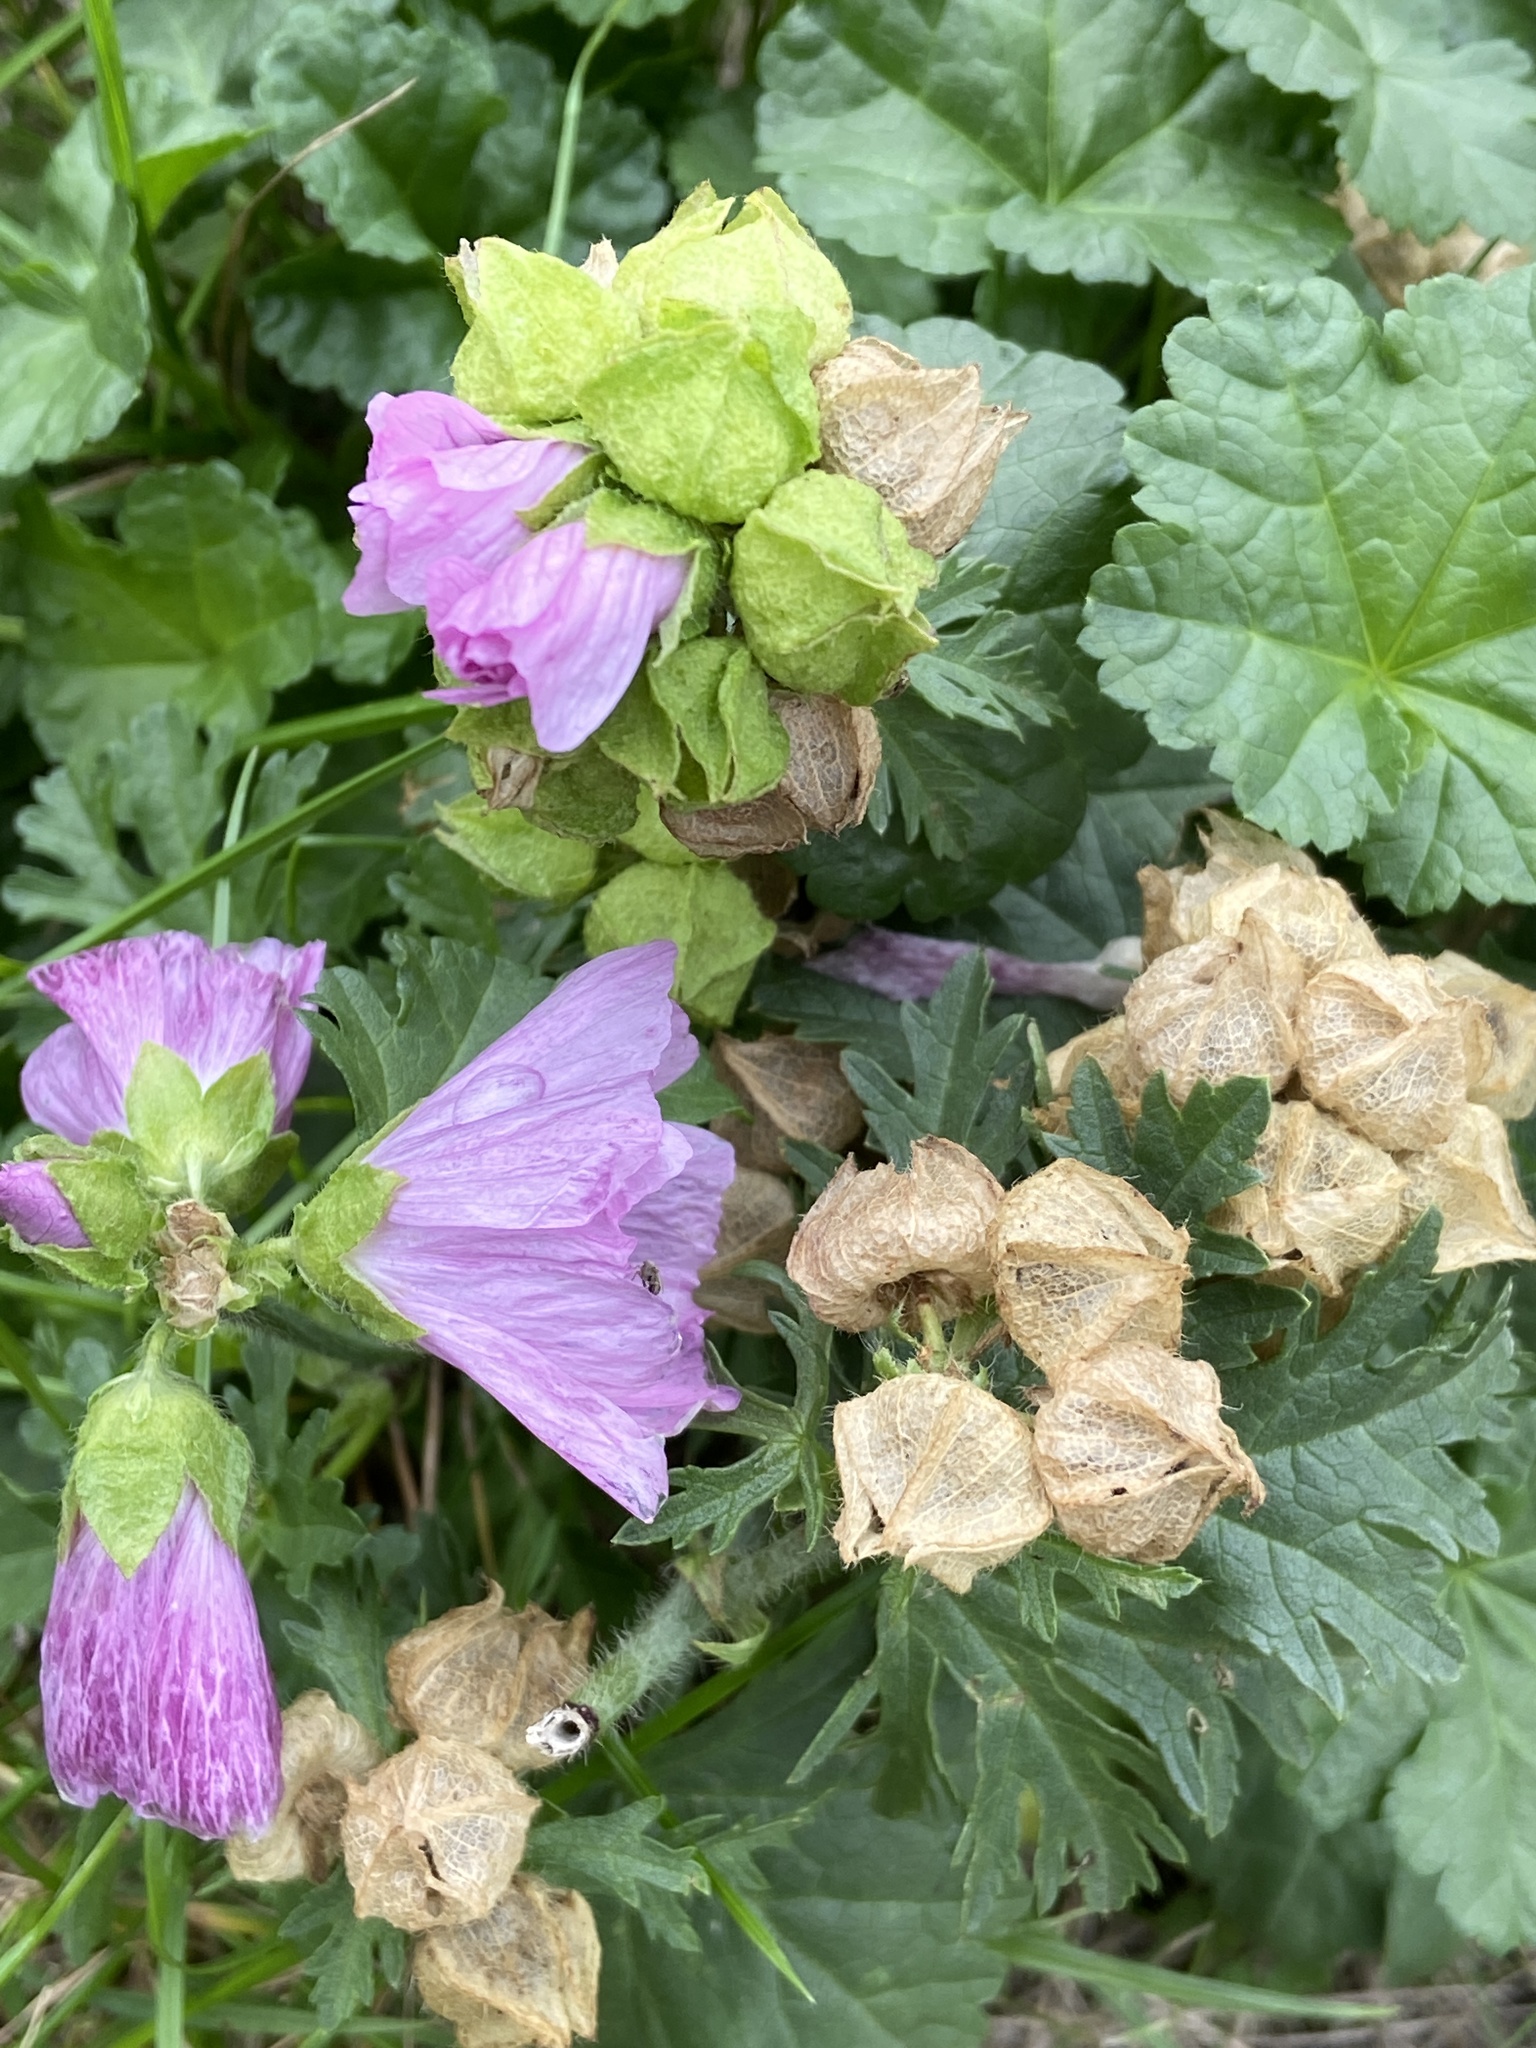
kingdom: Plantae
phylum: Tracheophyta
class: Magnoliopsida
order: Malvales
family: Malvaceae
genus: Malva
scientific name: Malva moschata
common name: Musk mallow
